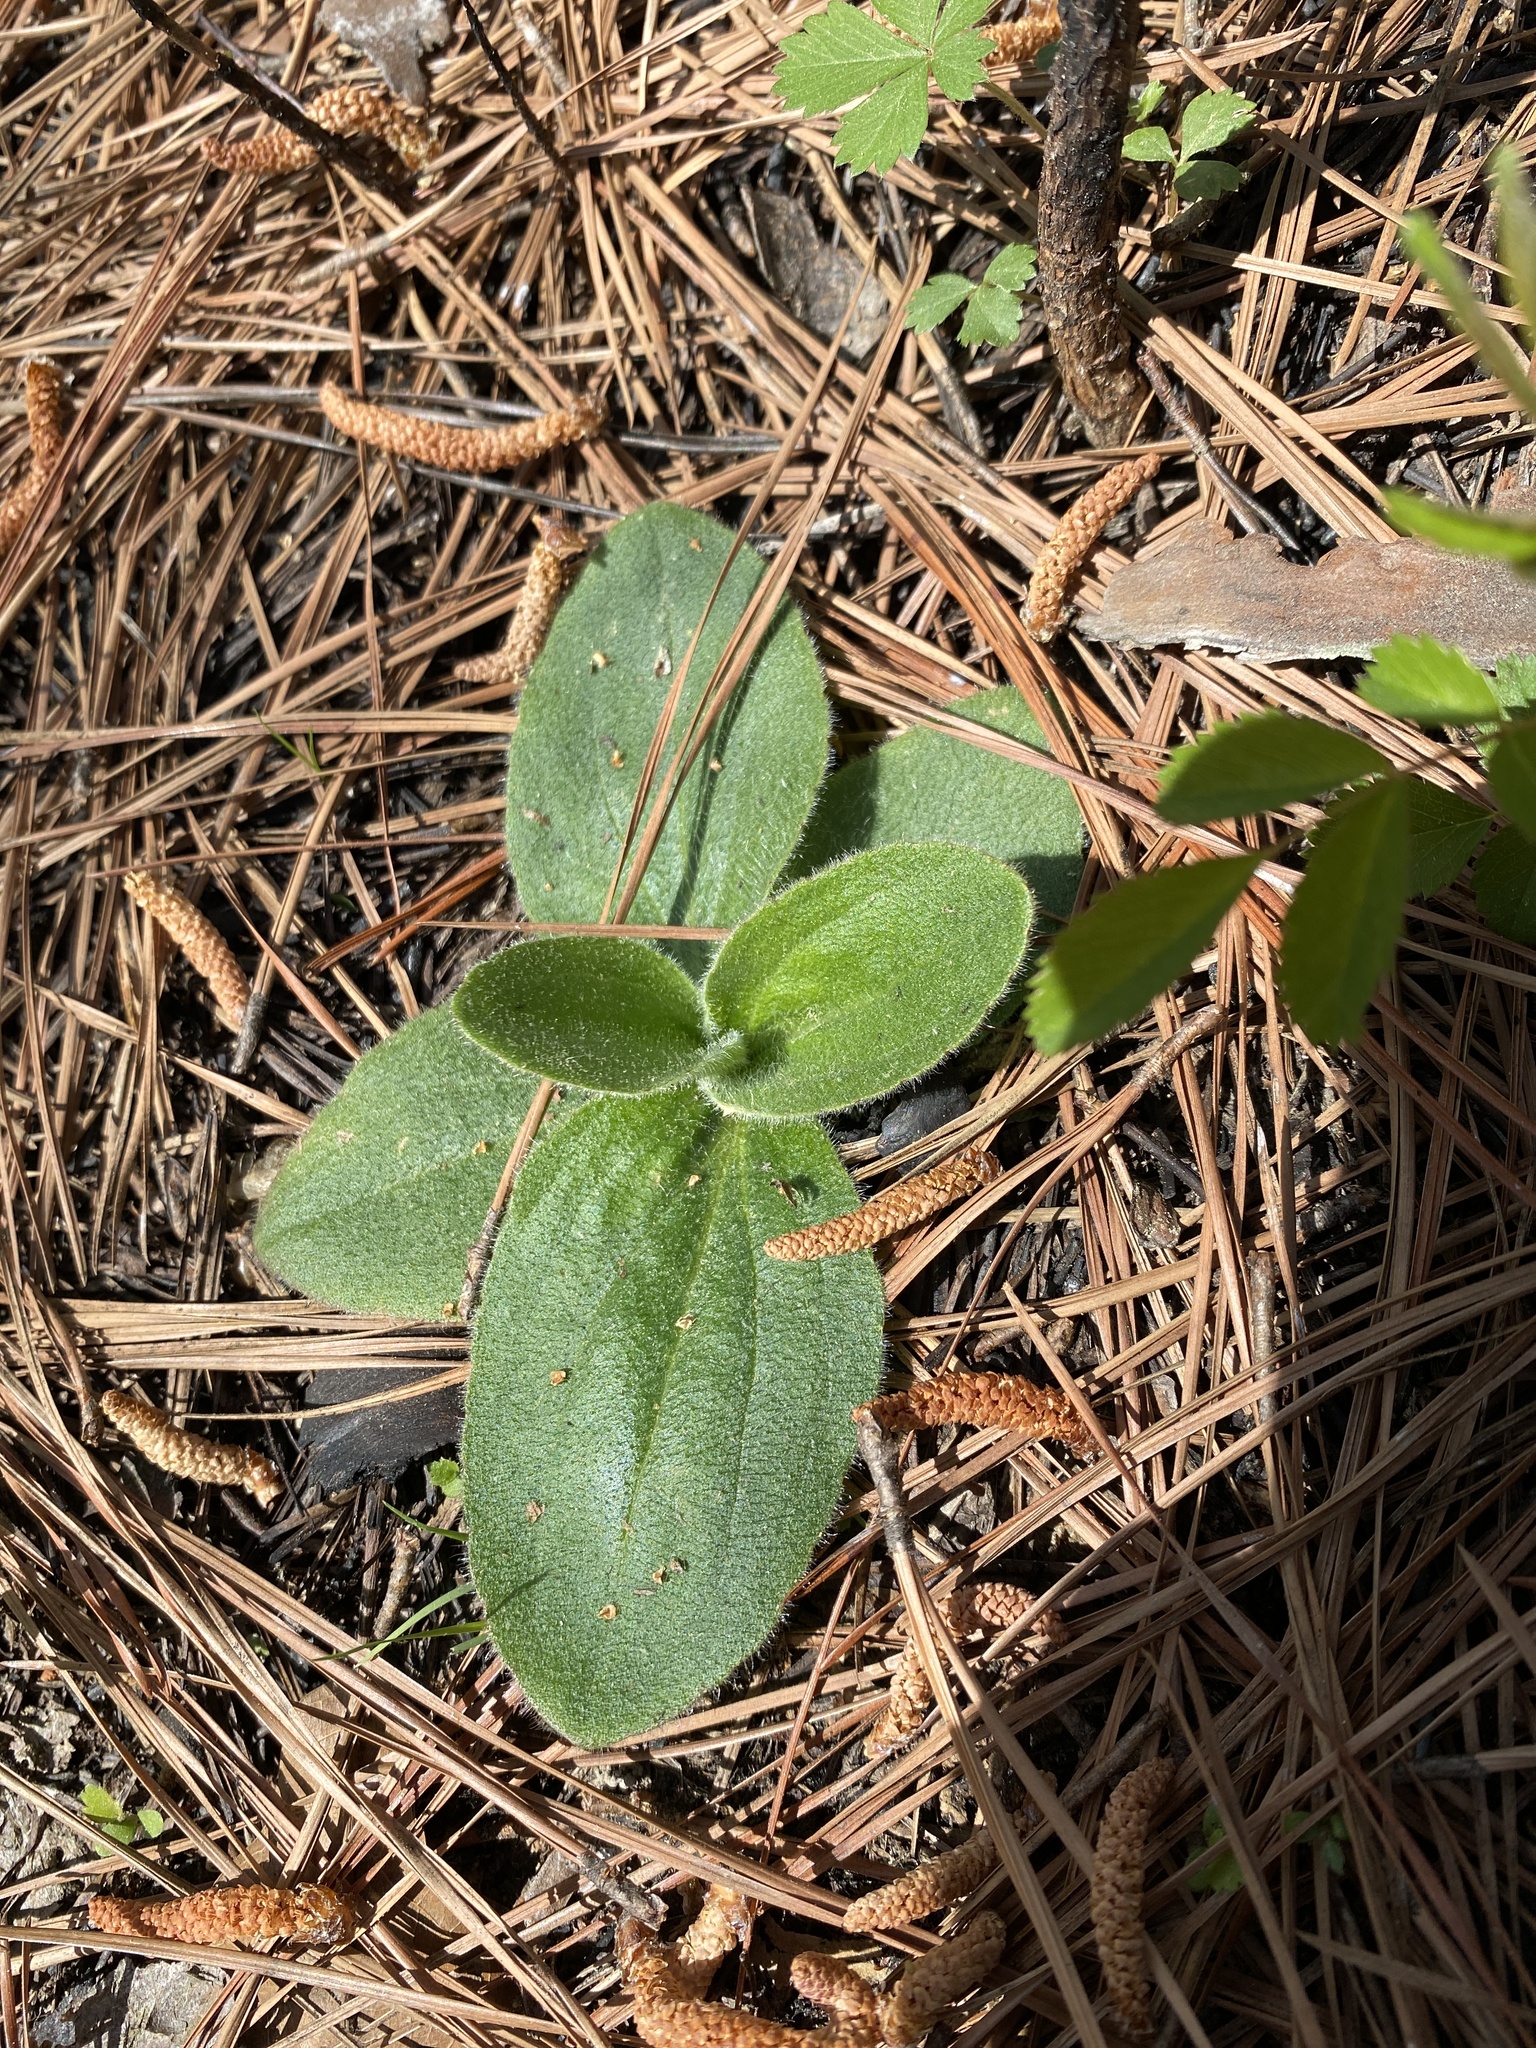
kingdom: Plantae
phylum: Tracheophyta
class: Magnoliopsida
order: Asterales
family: Asteraceae
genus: Arnica
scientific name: Arnica acaulis
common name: Common leopardbane
